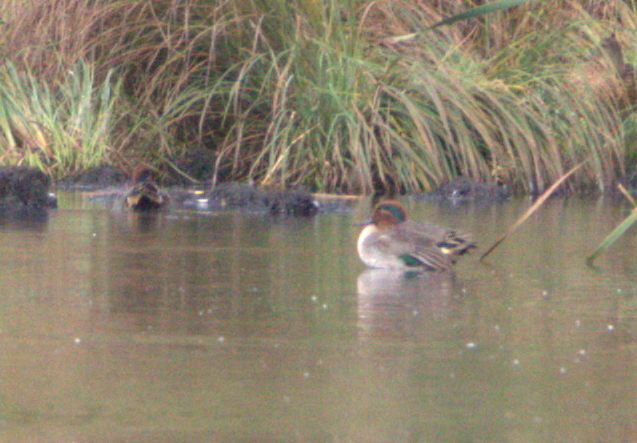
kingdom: Animalia
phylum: Chordata
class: Aves
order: Anseriformes
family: Anatidae
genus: Anas
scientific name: Anas crecca
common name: Eurasian teal
